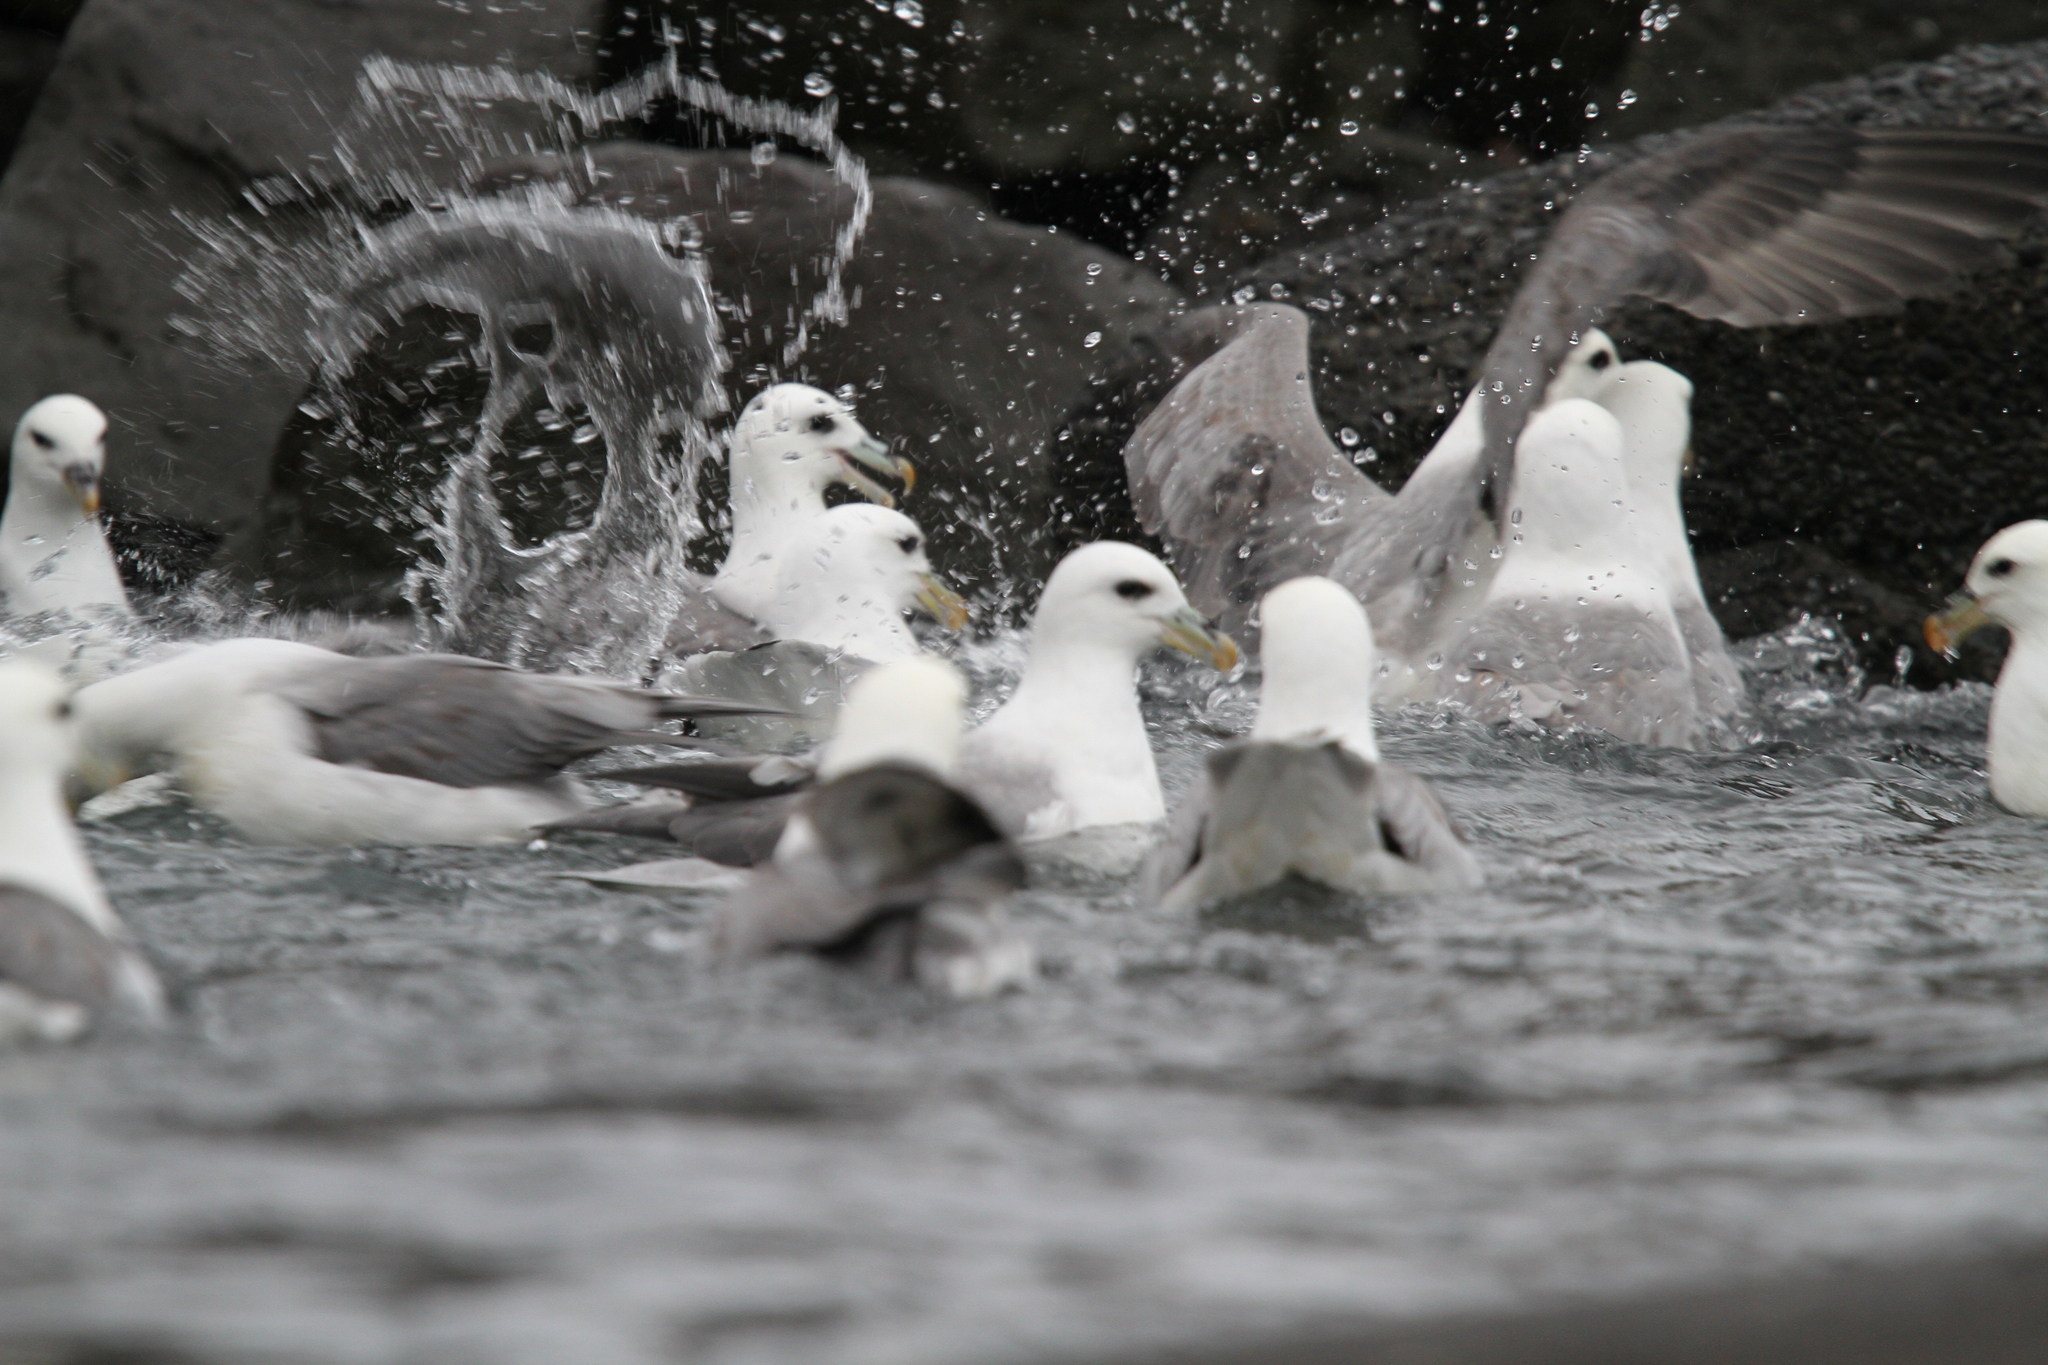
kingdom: Animalia
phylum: Chordata
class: Aves
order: Procellariiformes
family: Procellariidae
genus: Fulmarus
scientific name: Fulmarus glacialis
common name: Northern fulmar
